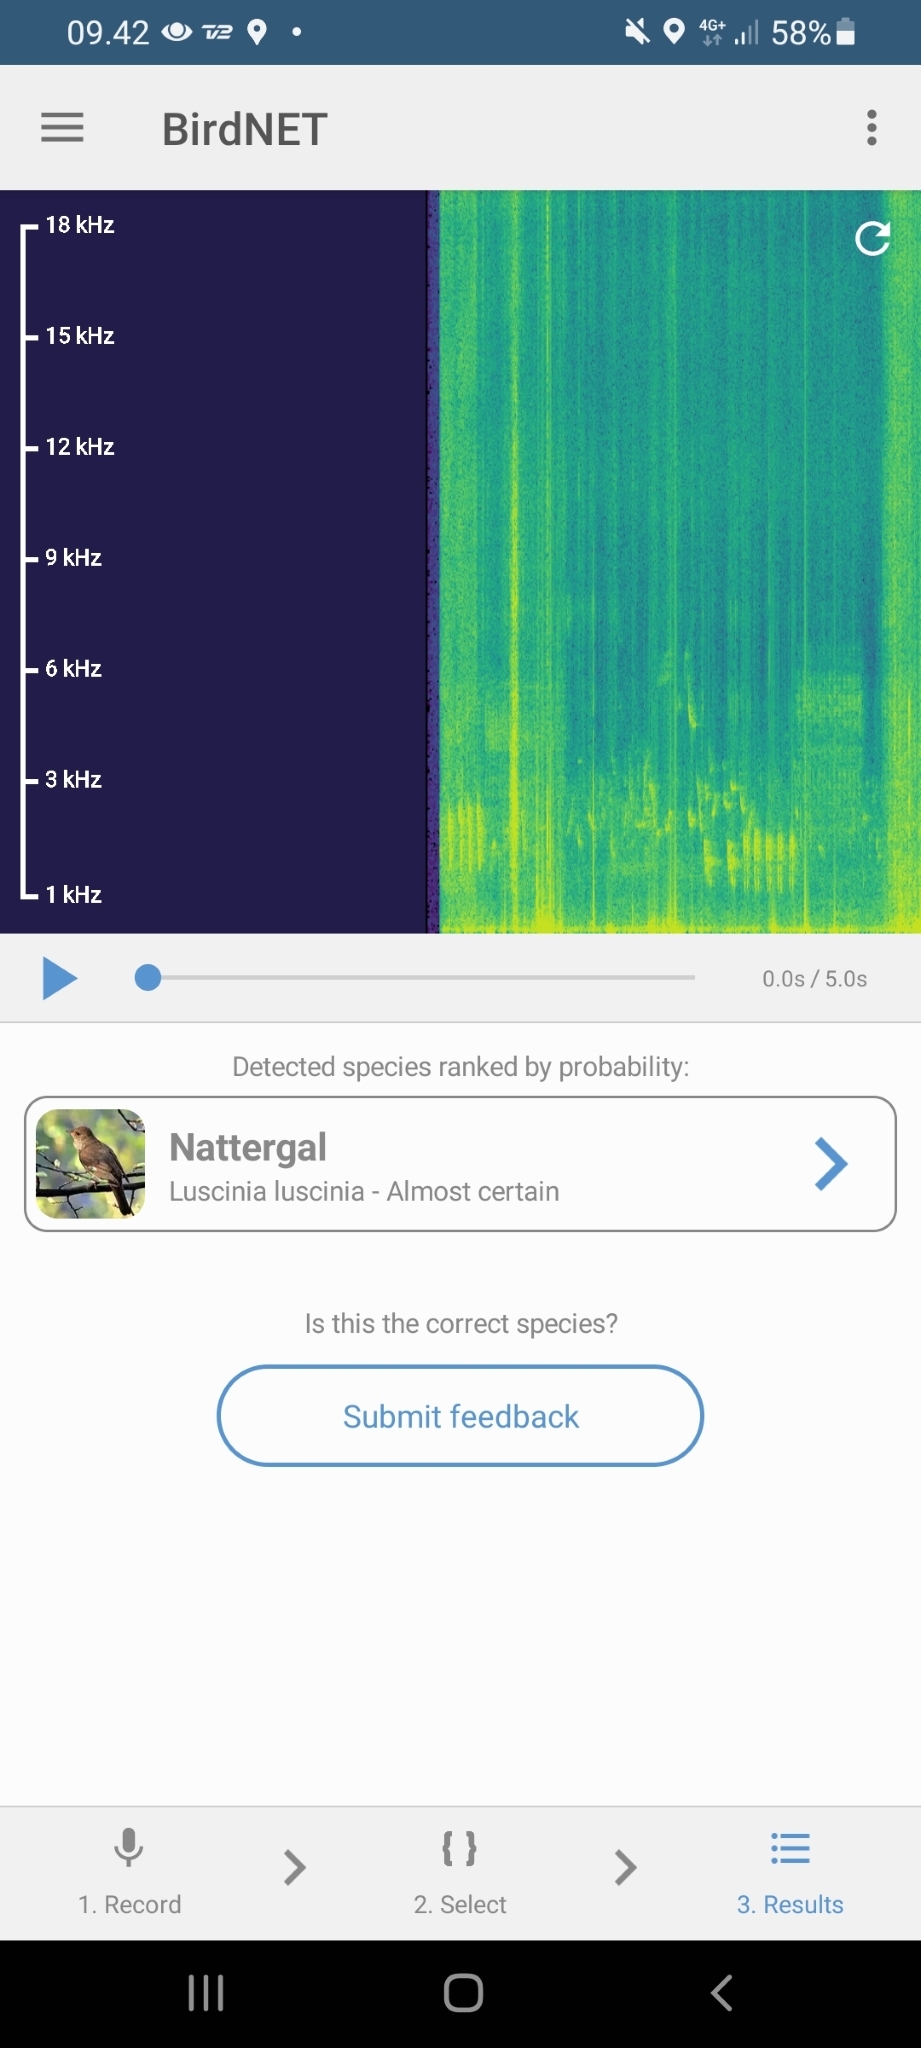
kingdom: Animalia
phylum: Chordata
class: Aves
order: Passeriformes
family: Muscicapidae
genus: Luscinia
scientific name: Luscinia luscinia
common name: Thrush nightingale
